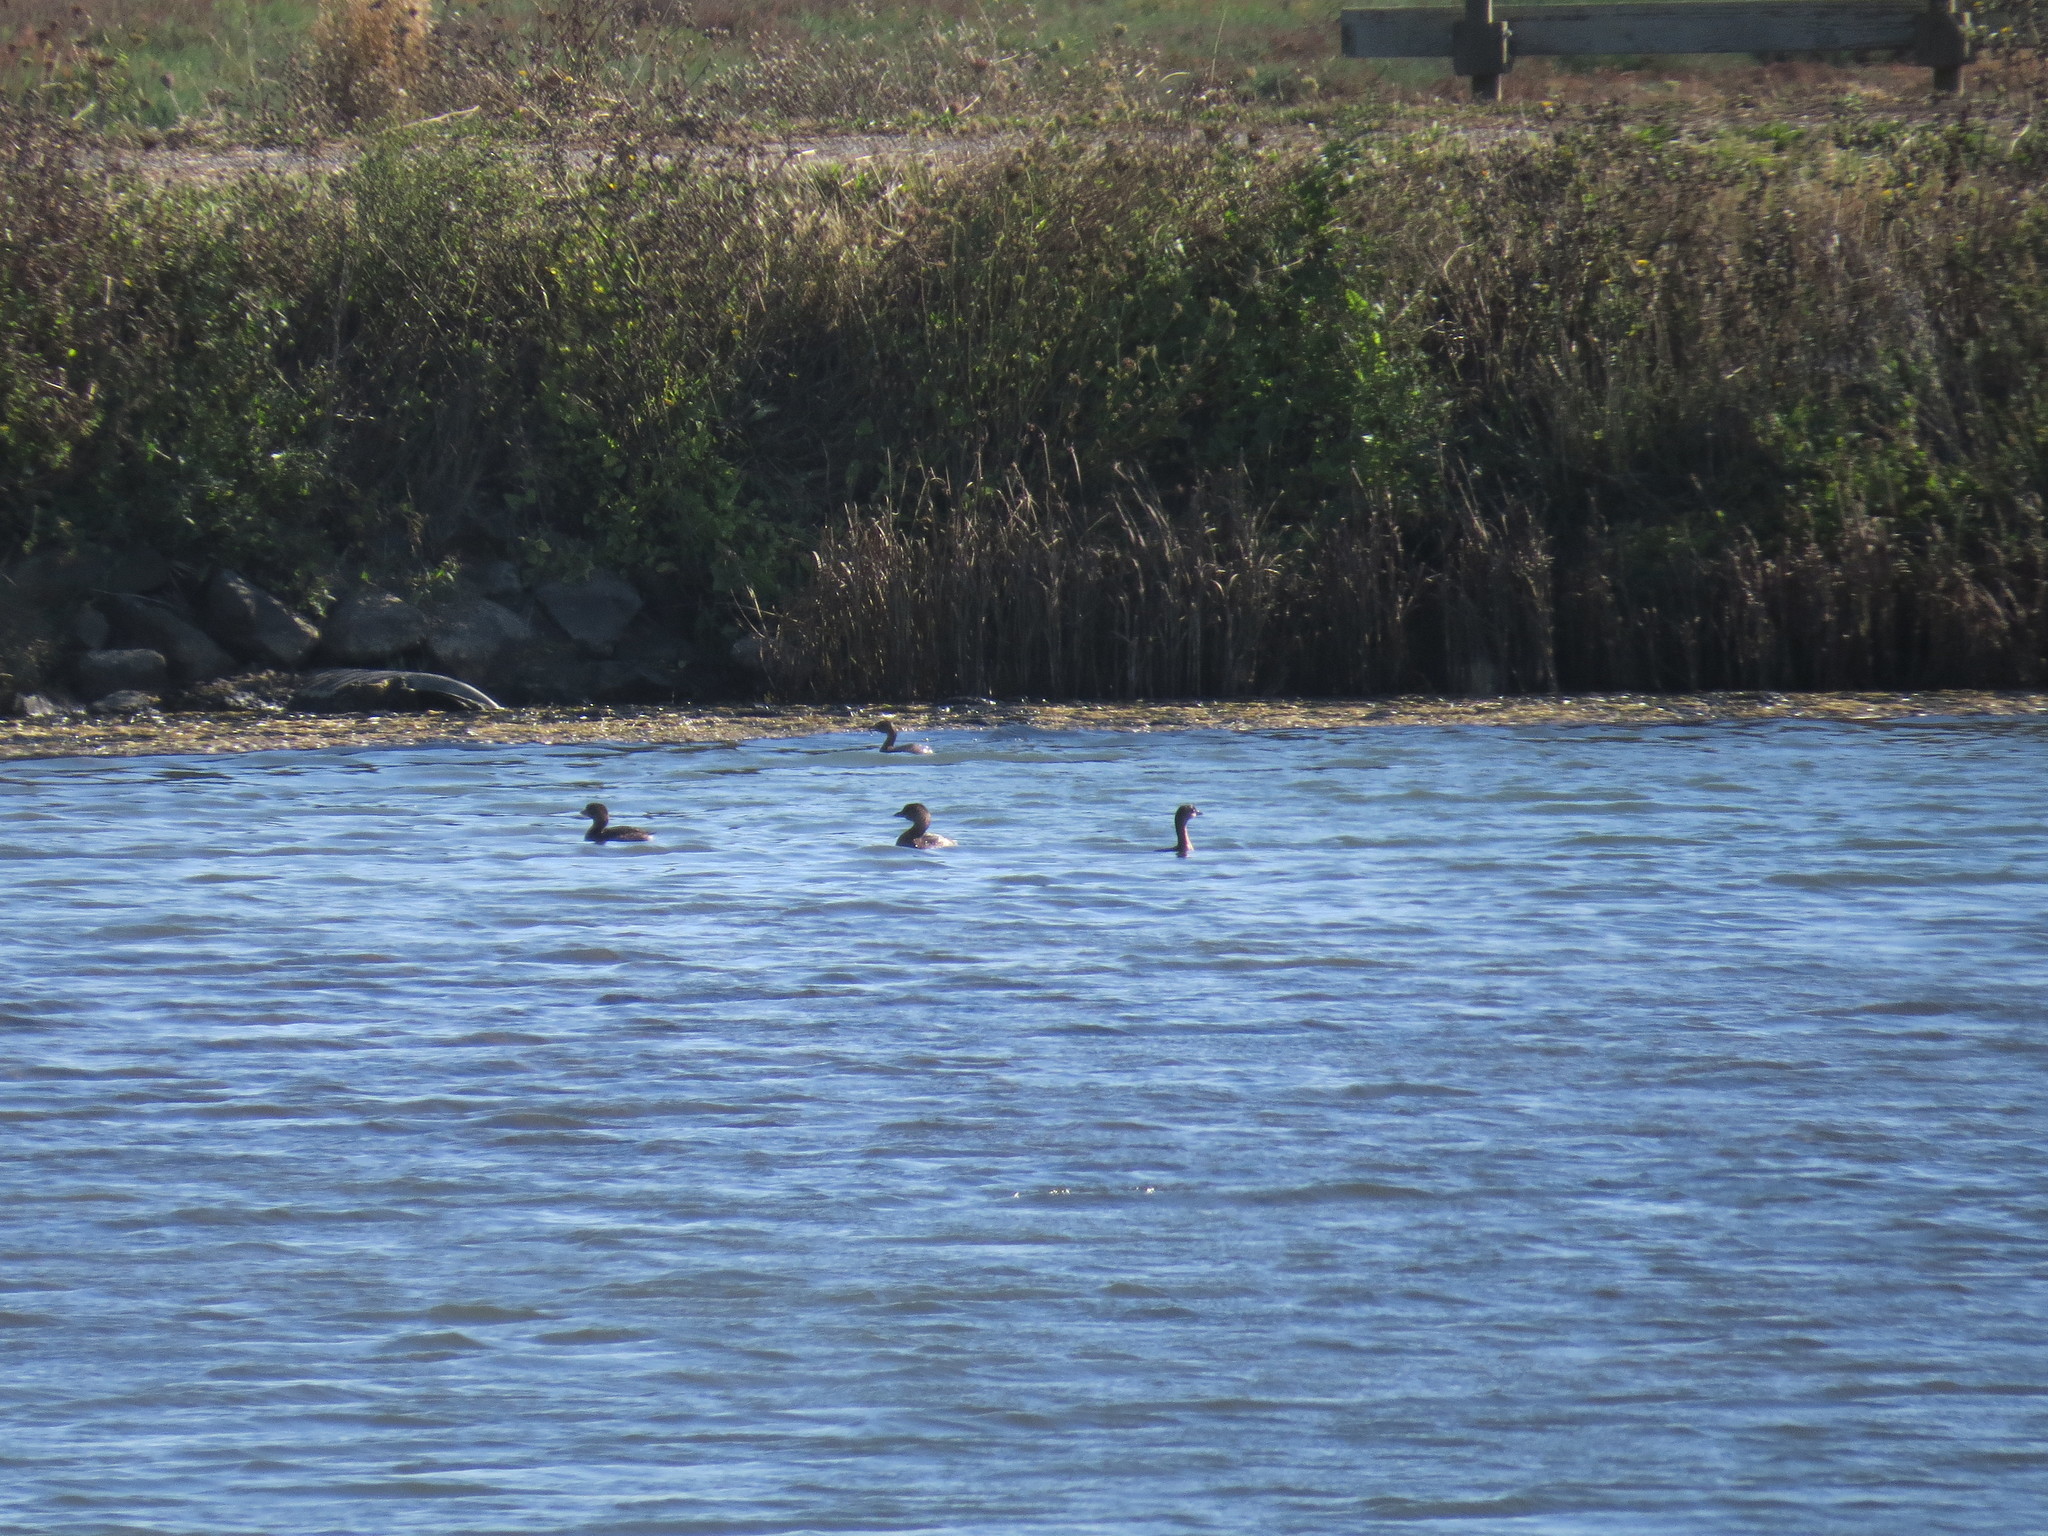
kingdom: Animalia
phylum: Chordata
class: Aves
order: Podicipediformes
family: Podicipedidae
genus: Podilymbus
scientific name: Podilymbus podiceps
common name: Pied-billed grebe
